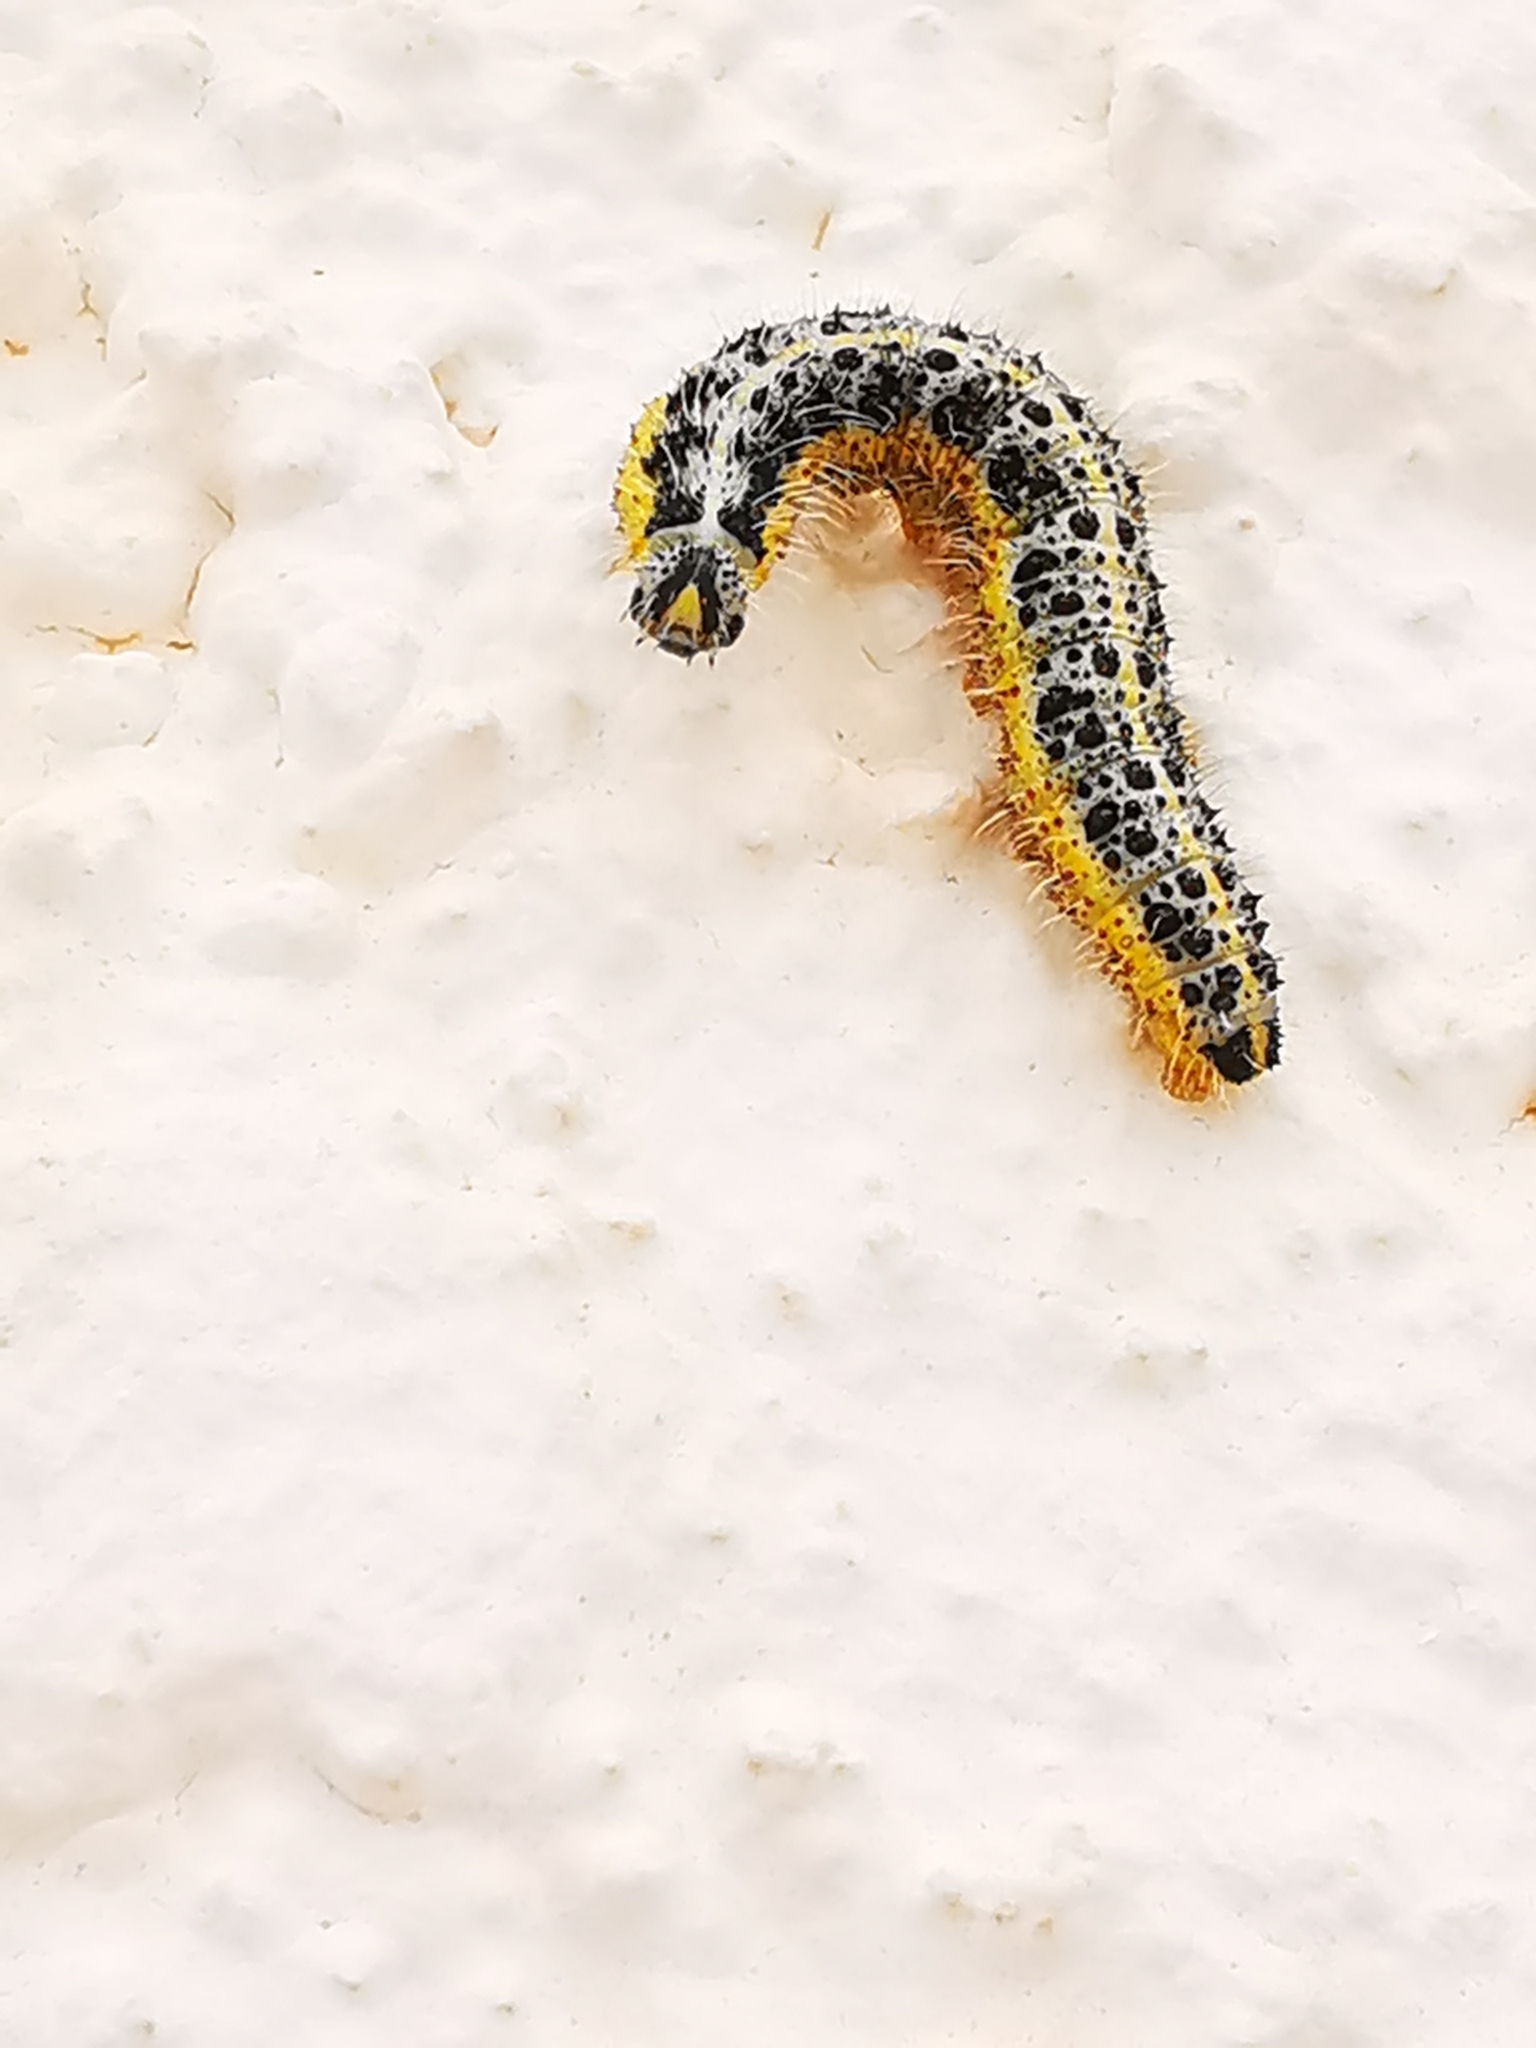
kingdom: Animalia
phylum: Arthropoda
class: Insecta
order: Lepidoptera
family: Pieridae
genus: Pieris
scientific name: Pieris brassicae
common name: Large white
